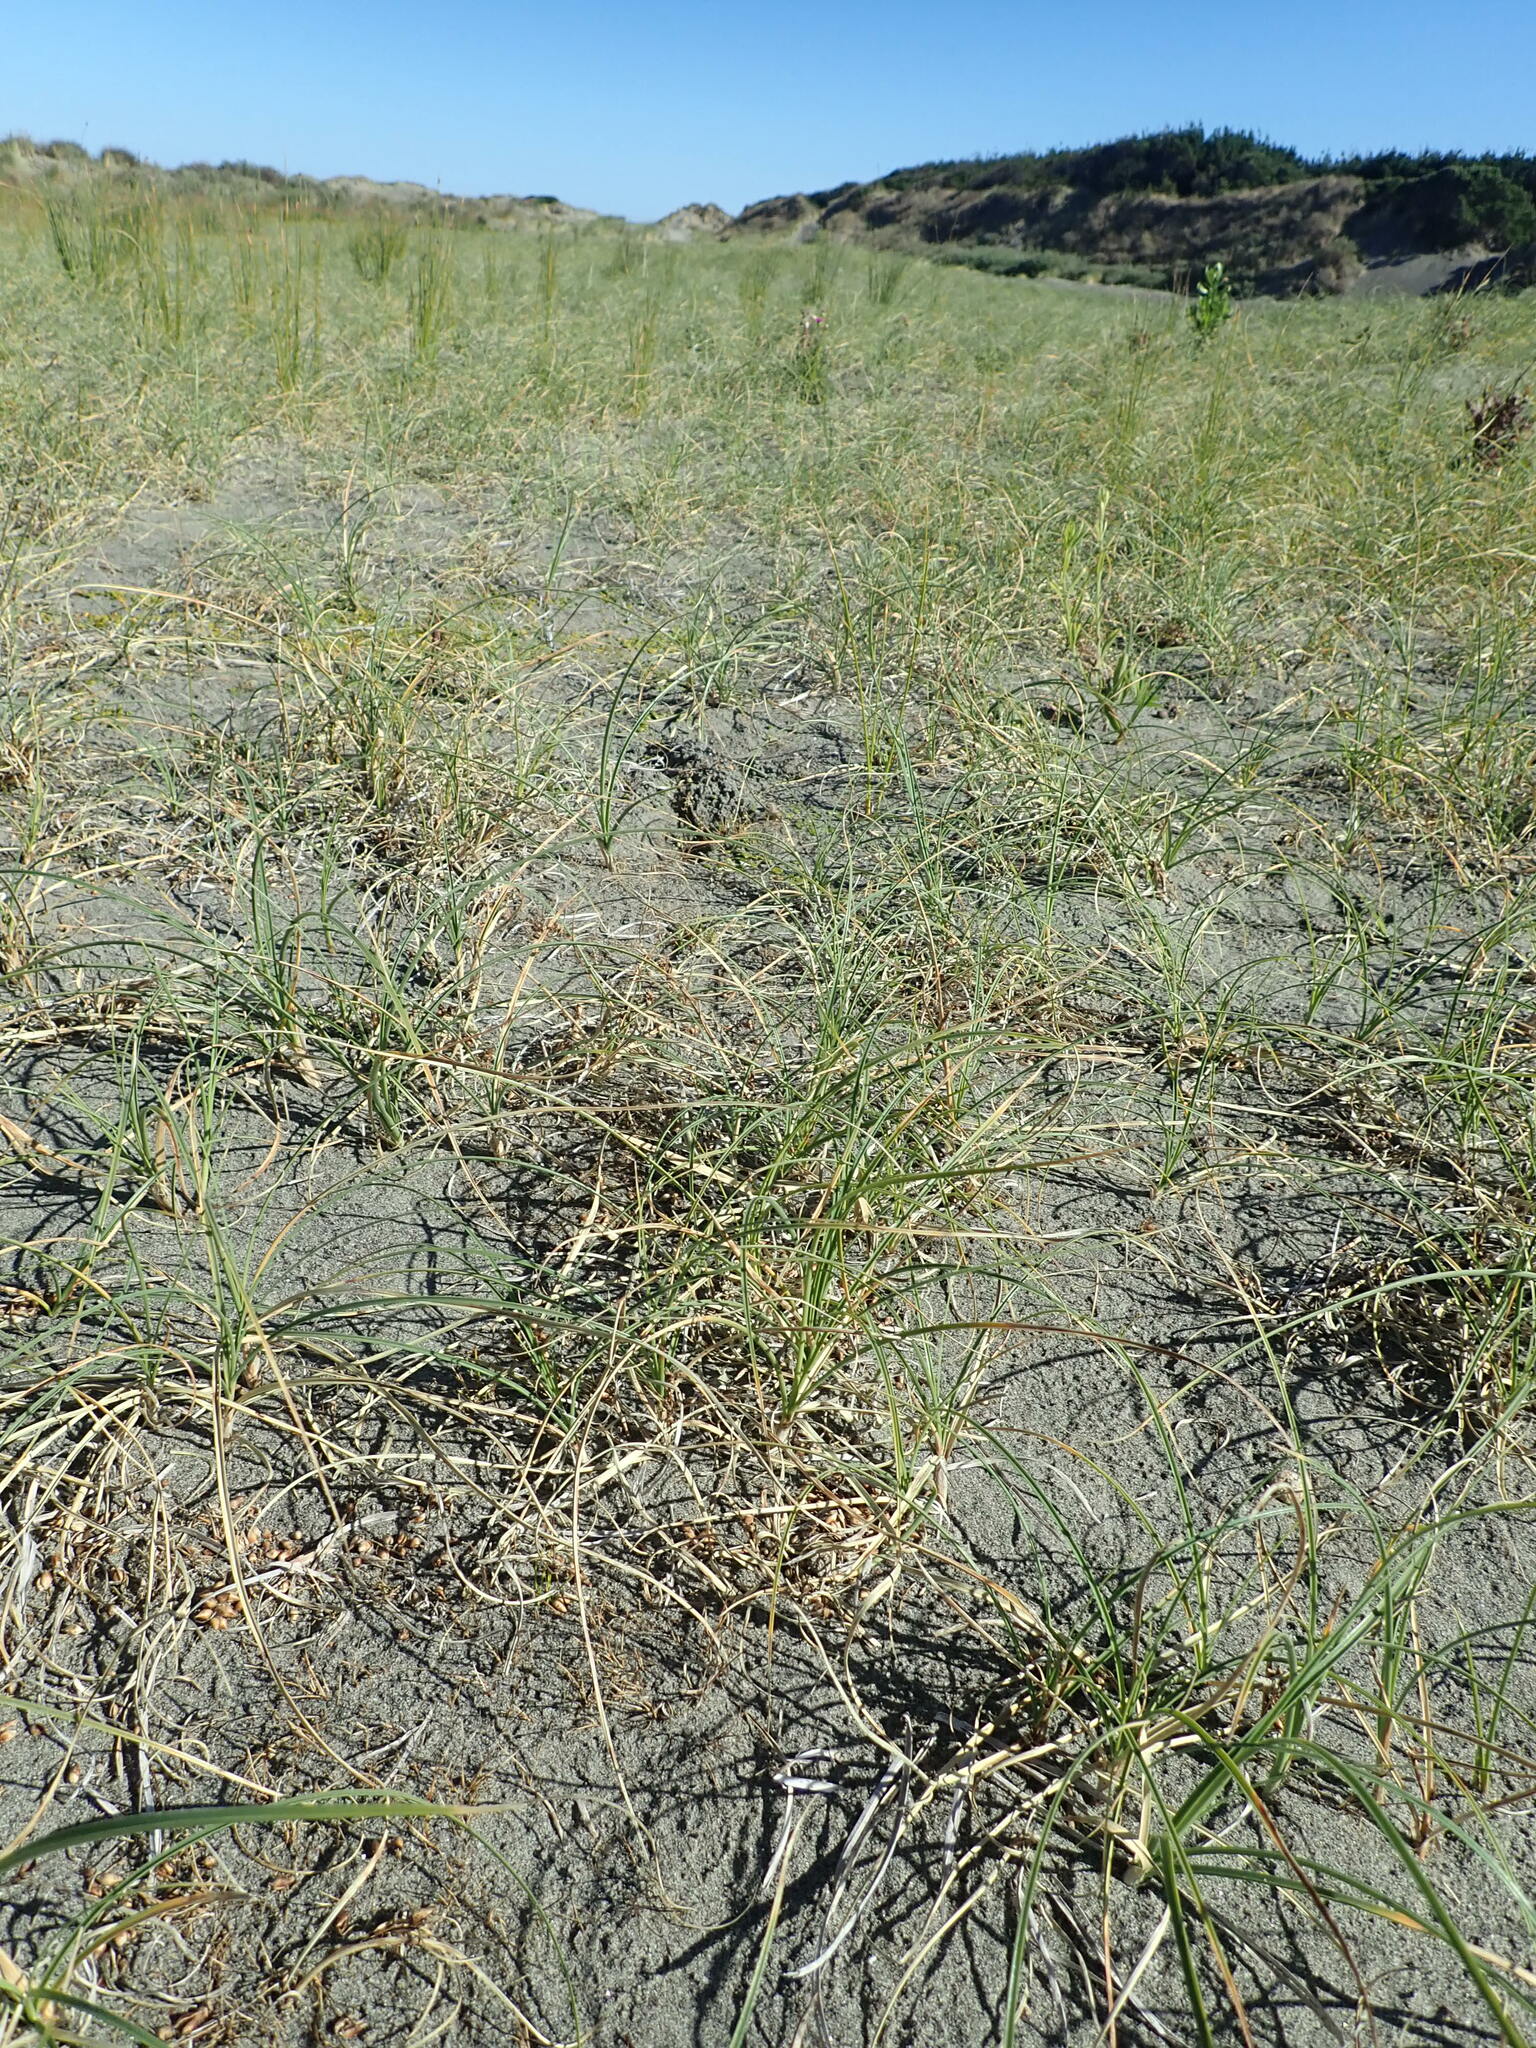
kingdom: Plantae
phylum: Tracheophyta
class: Liliopsida
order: Poales
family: Cyperaceae
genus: Carex
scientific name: Carex pumila
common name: Dwarf sedge
